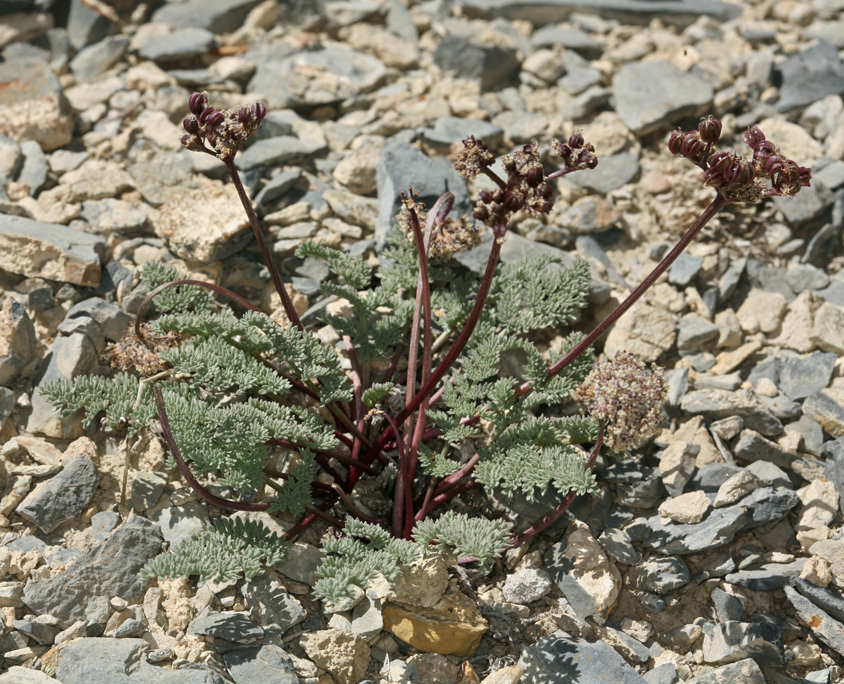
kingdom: Plantae
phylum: Tracheophyta
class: Magnoliopsida
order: Apiales
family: Apiaceae
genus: Aulospermum
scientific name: Aulospermum aboriginum
